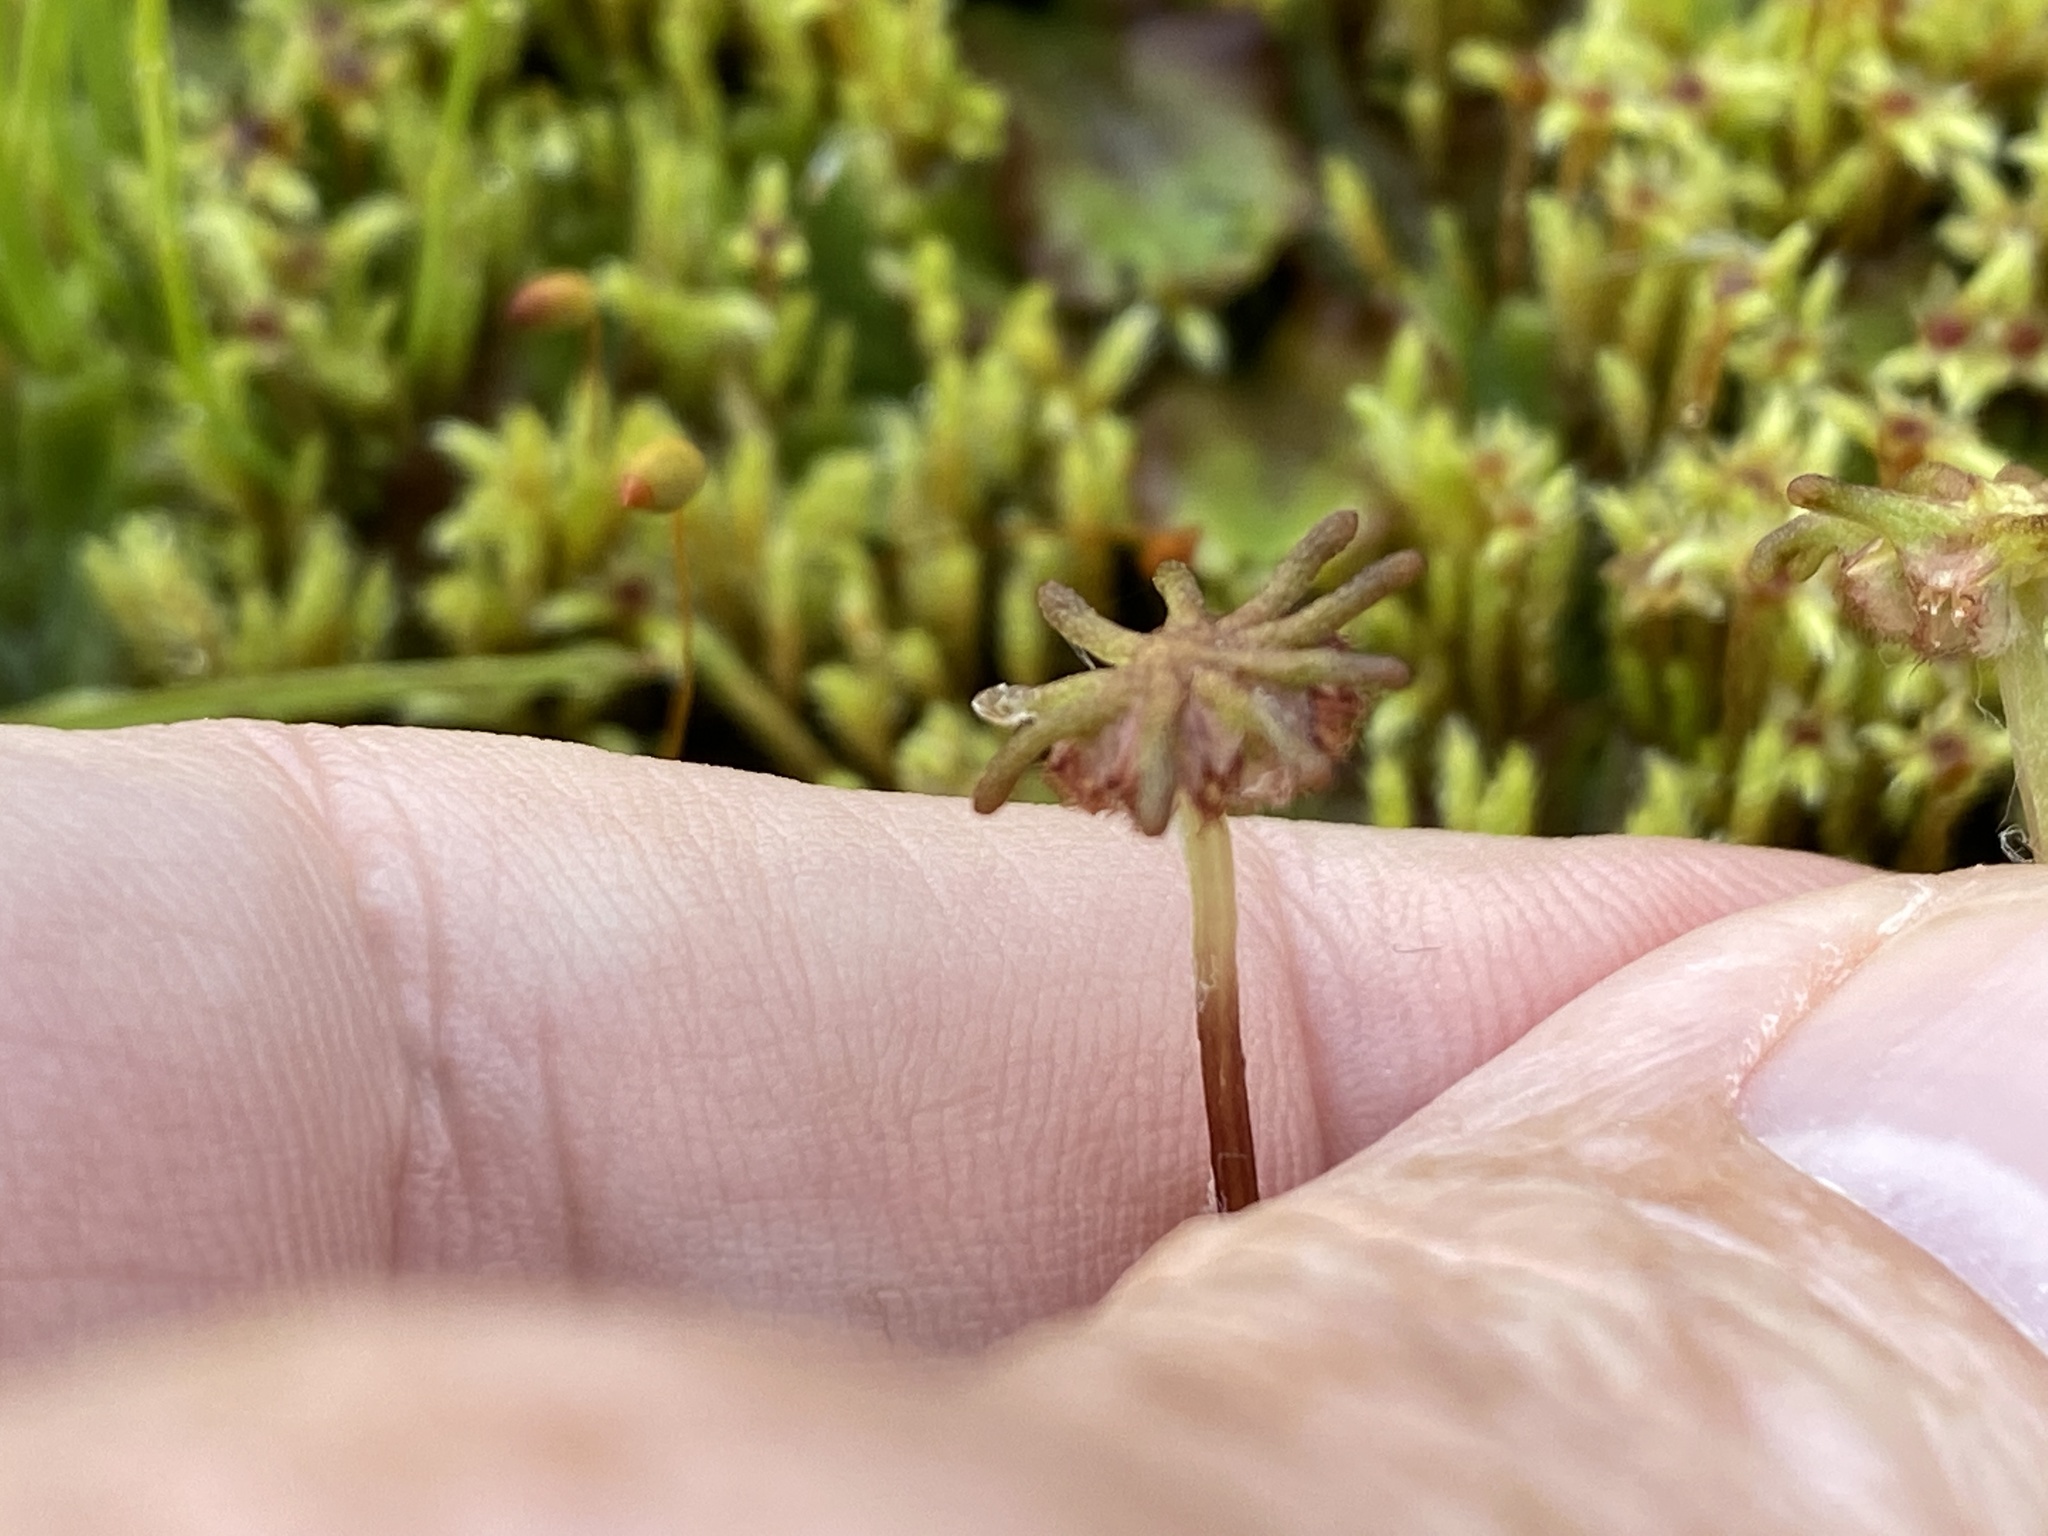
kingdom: Plantae
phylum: Marchantiophyta
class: Marchantiopsida
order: Marchantiales
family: Marchantiaceae
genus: Marchantia
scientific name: Marchantia polymorpha
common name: Common liverwort
